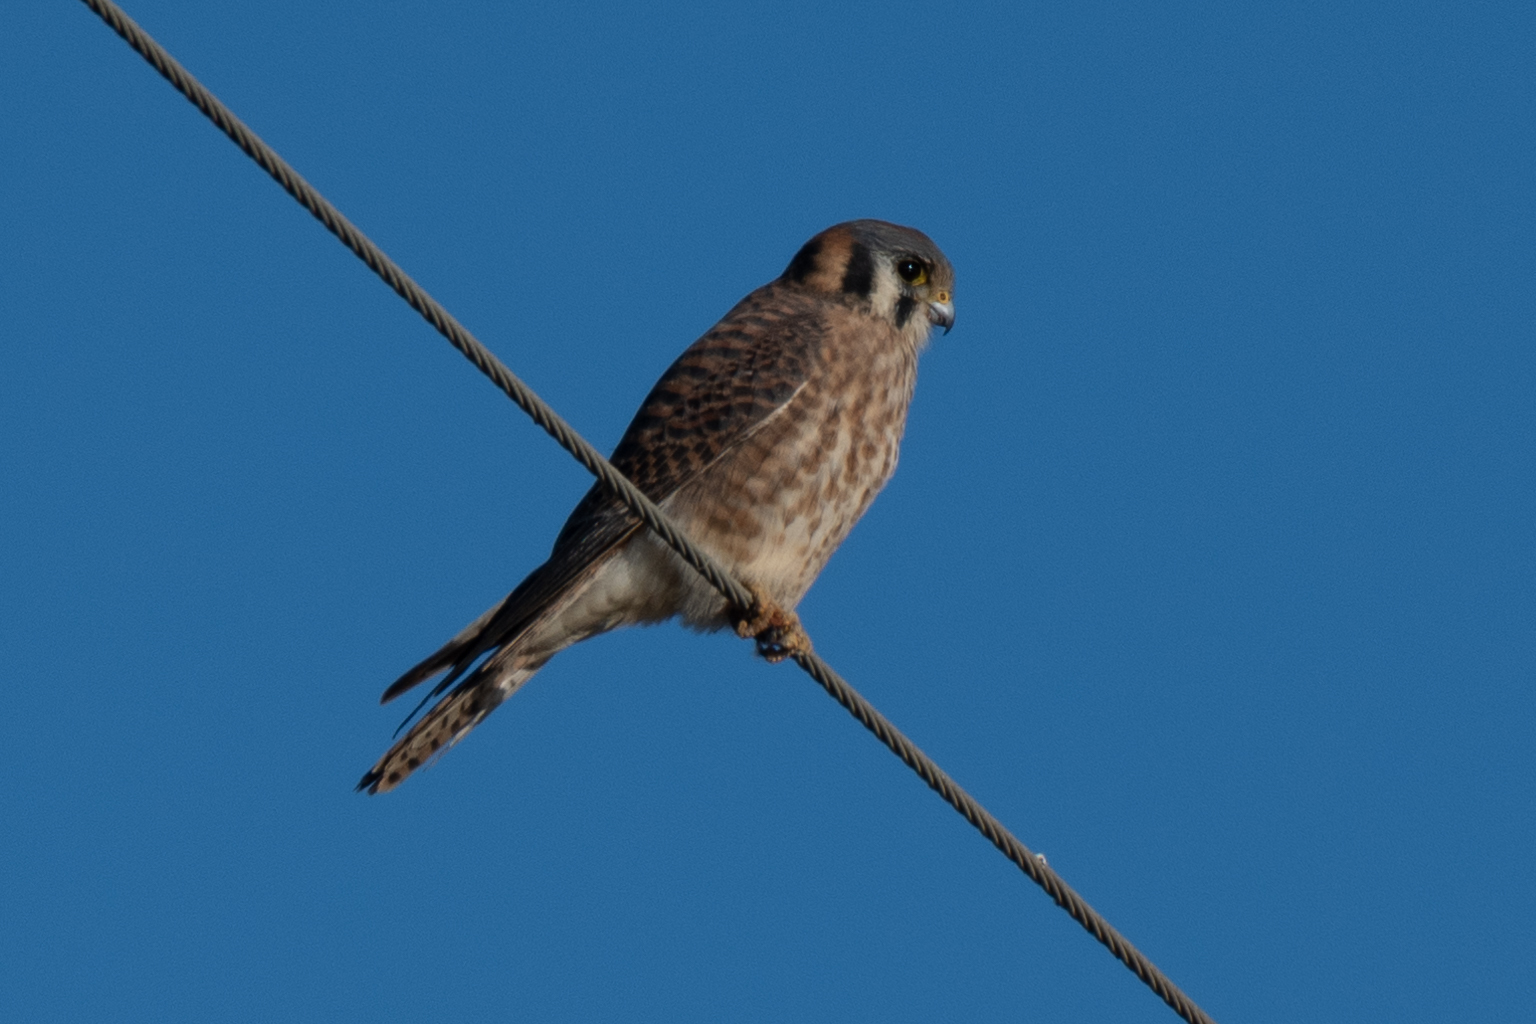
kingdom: Animalia
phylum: Chordata
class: Aves
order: Falconiformes
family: Falconidae
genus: Falco
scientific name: Falco sparverius
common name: American kestrel
